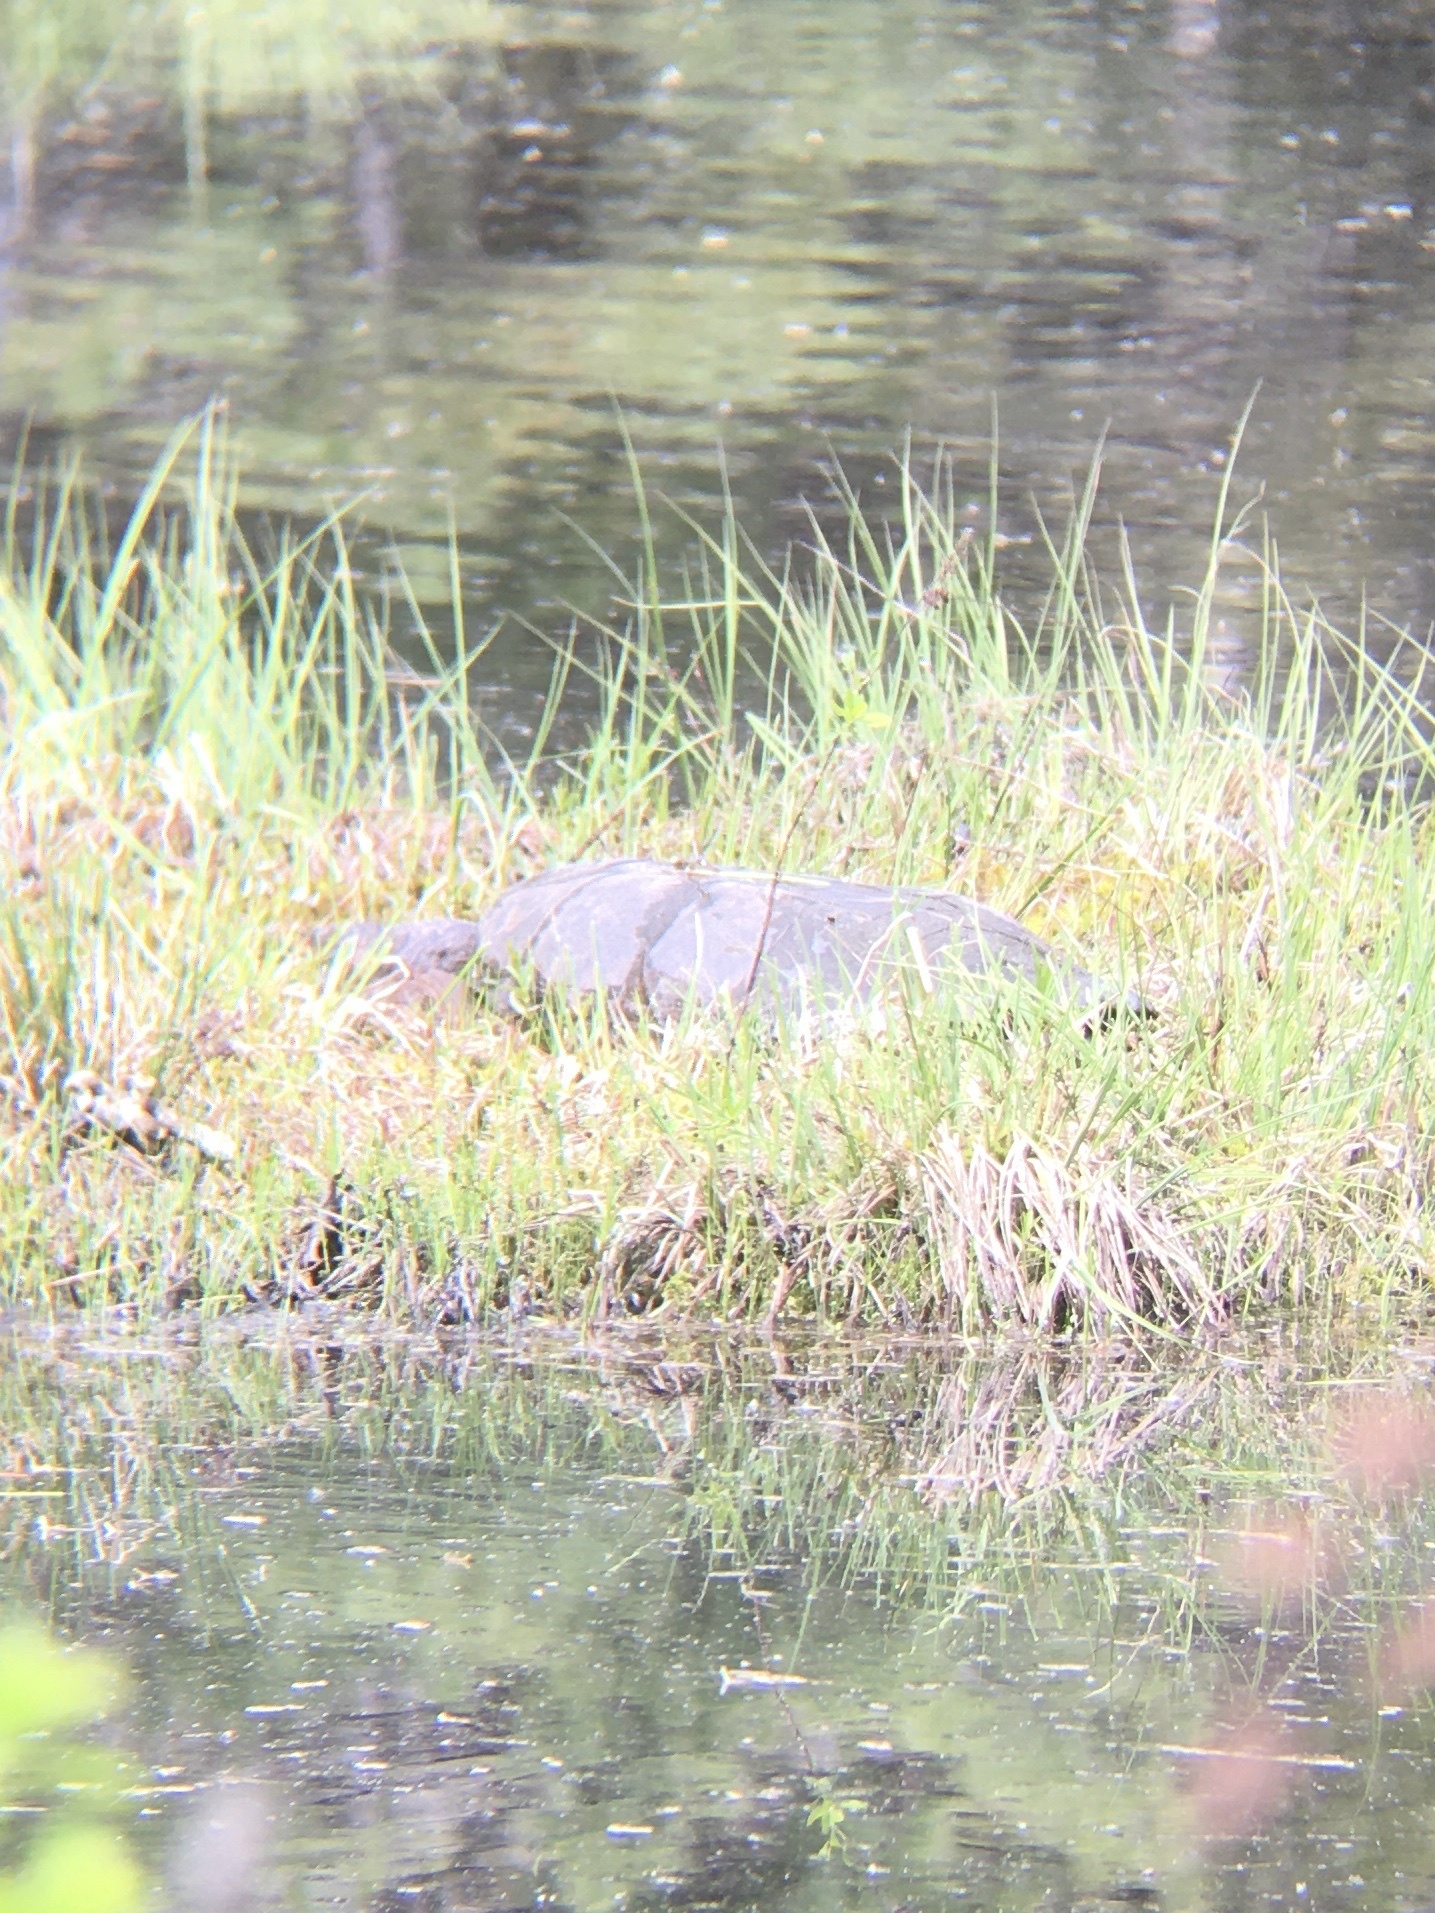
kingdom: Animalia
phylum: Chordata
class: Testudines
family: Chelydridae
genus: Chelydra
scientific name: Chelydra serpentina
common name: Common snapping turtle
